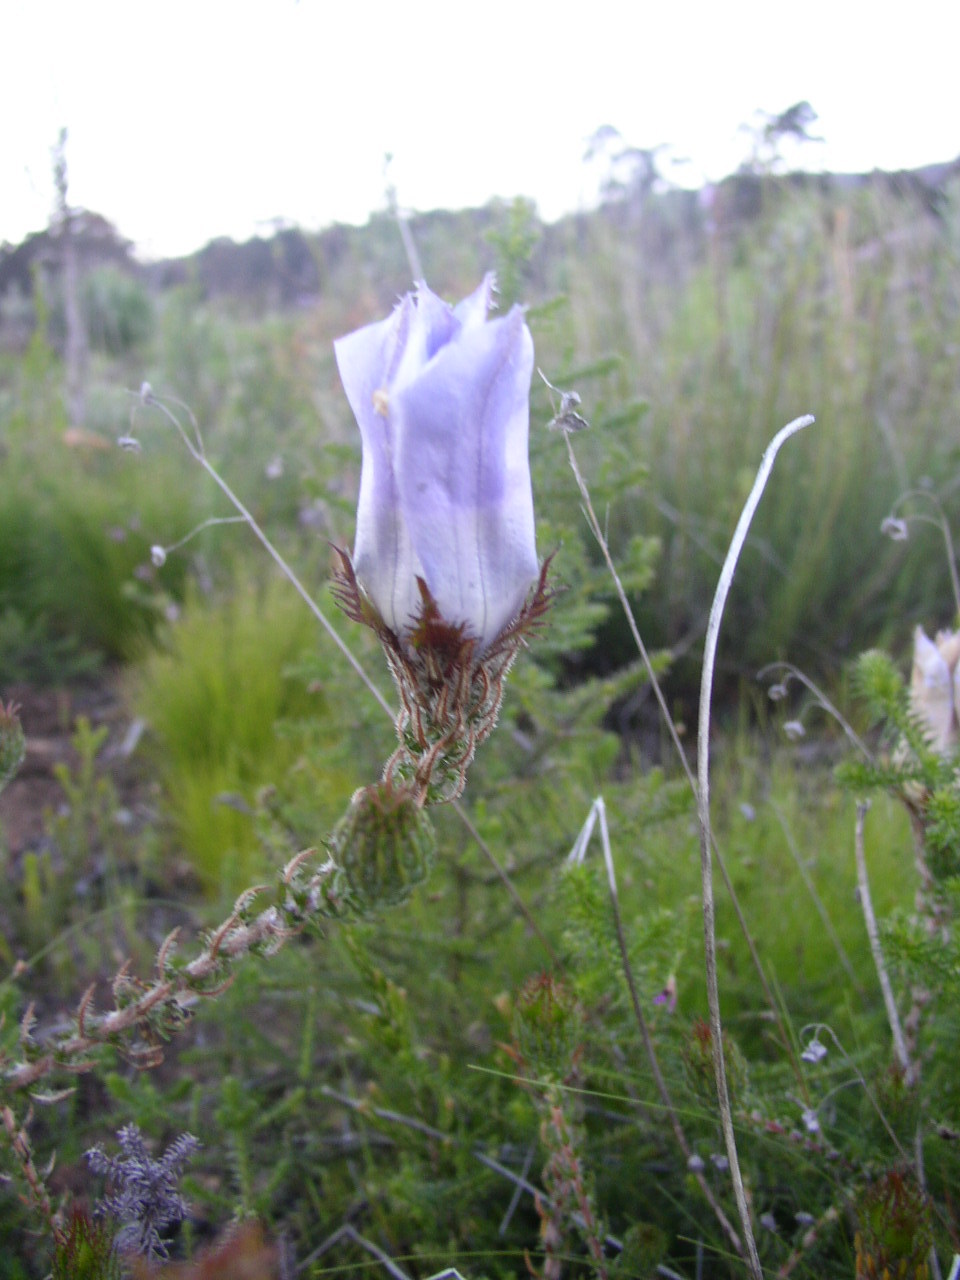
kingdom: Plantae
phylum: Tracheophyta
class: Magnoliopsida
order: Asterales
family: Campanulaceae
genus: Roella
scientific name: Roella ciliata
